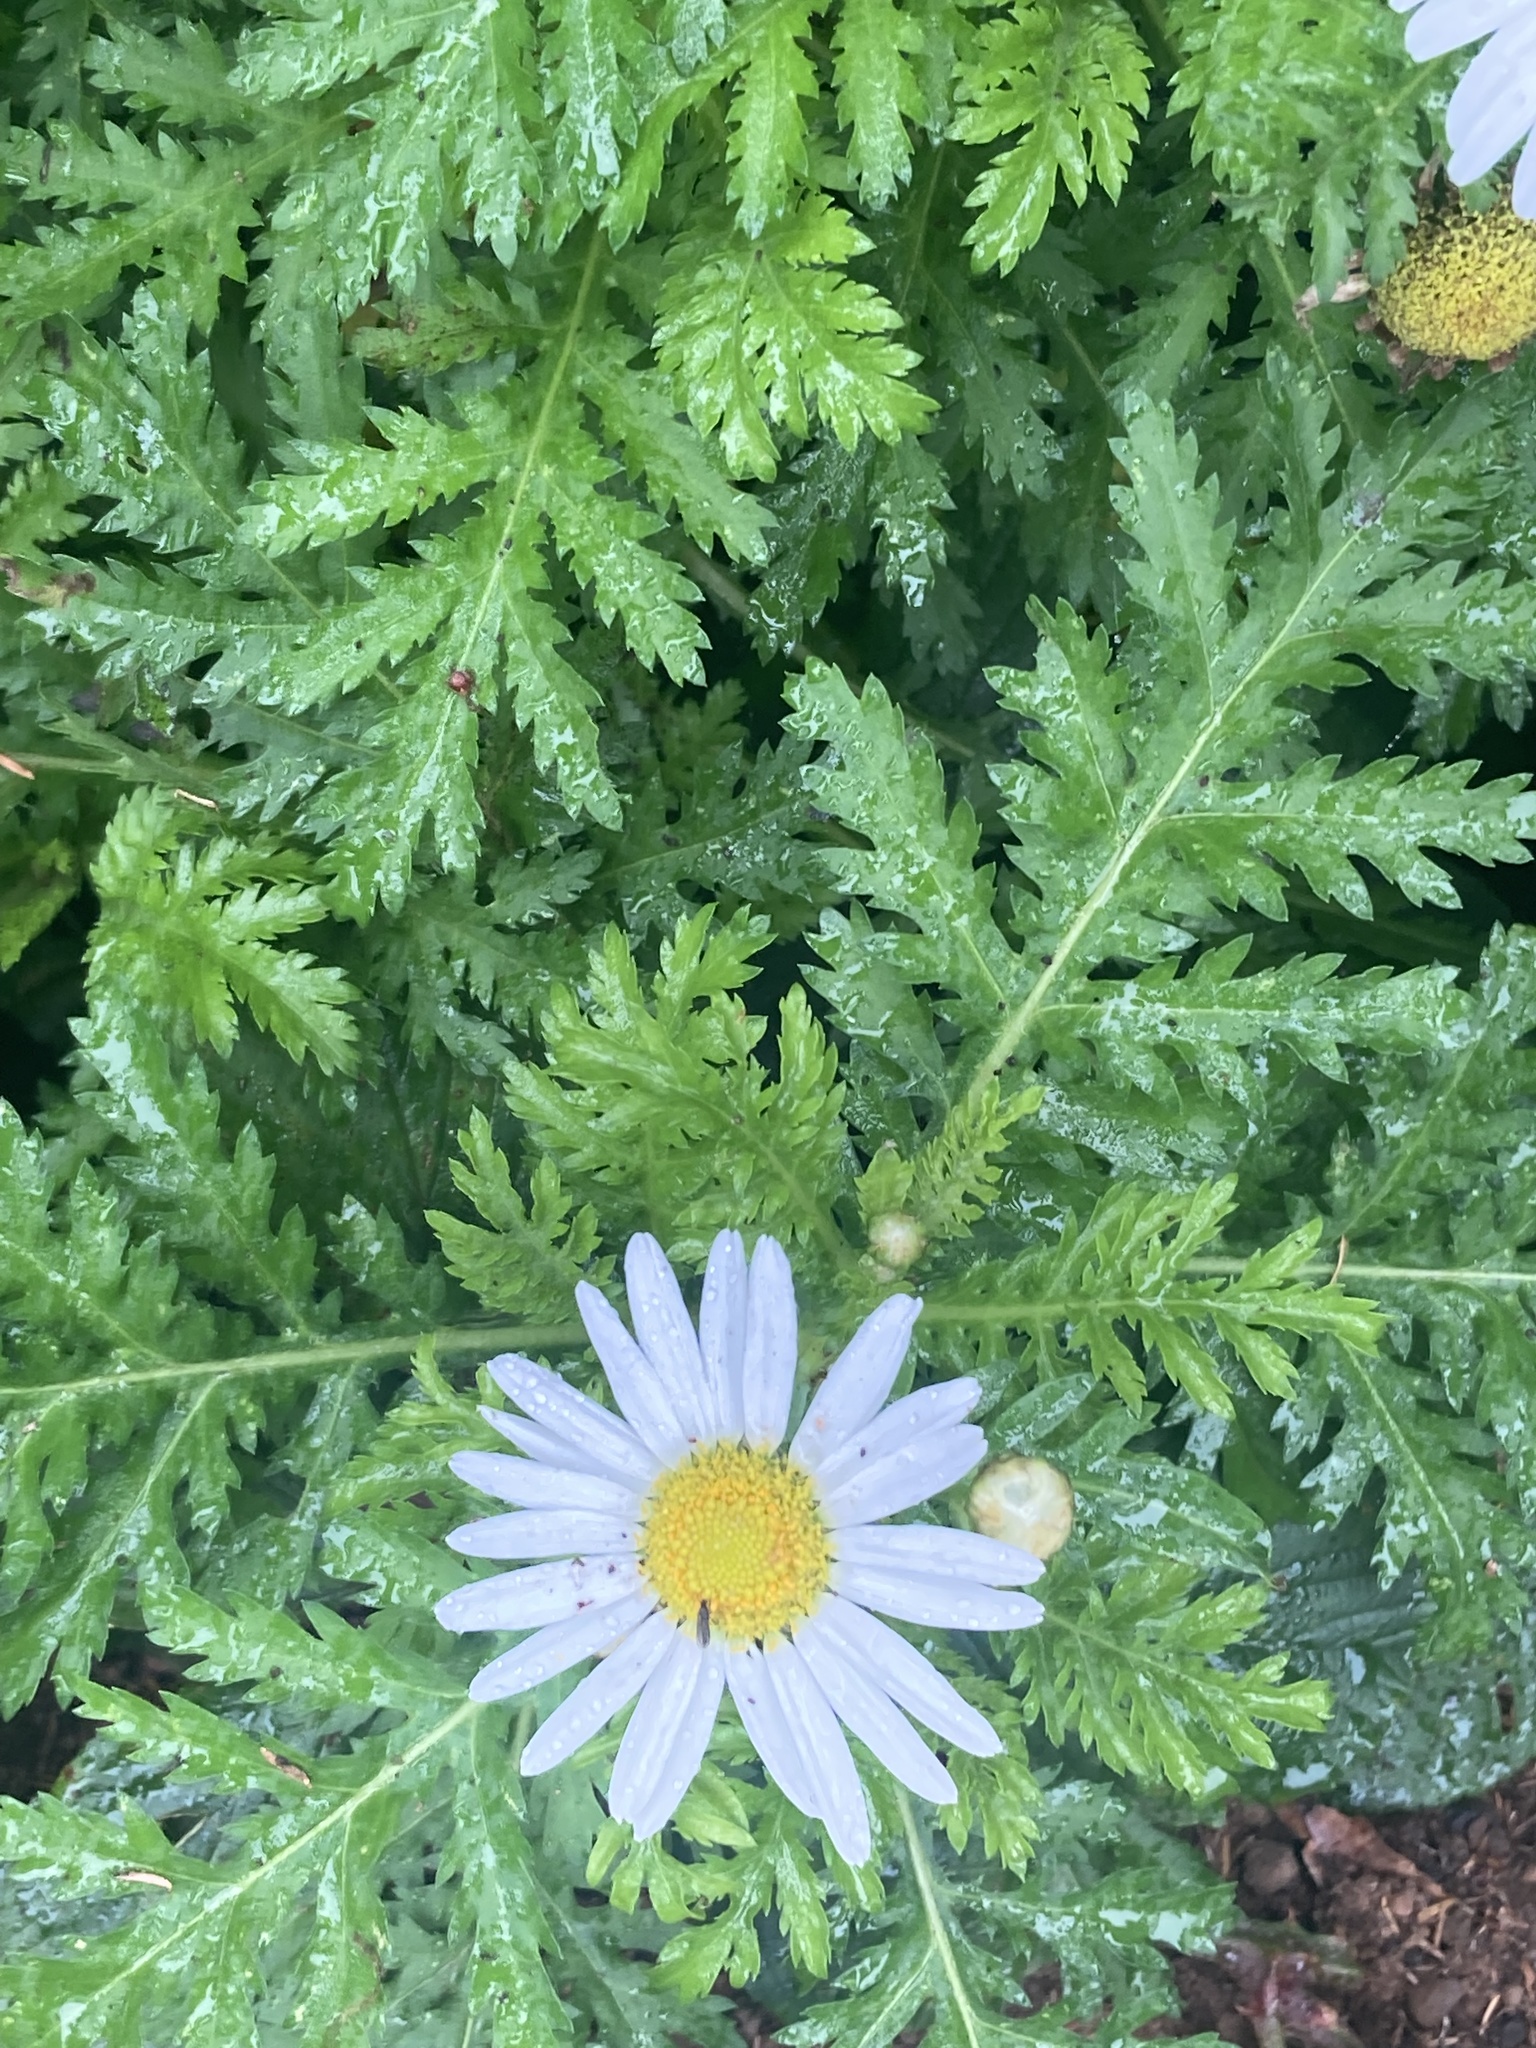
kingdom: Plantae
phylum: Tracheophyta
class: Magnoliopsida
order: Asterales
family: Asteraceae
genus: Argyranthemum
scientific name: Argyranthemum broussonetii
